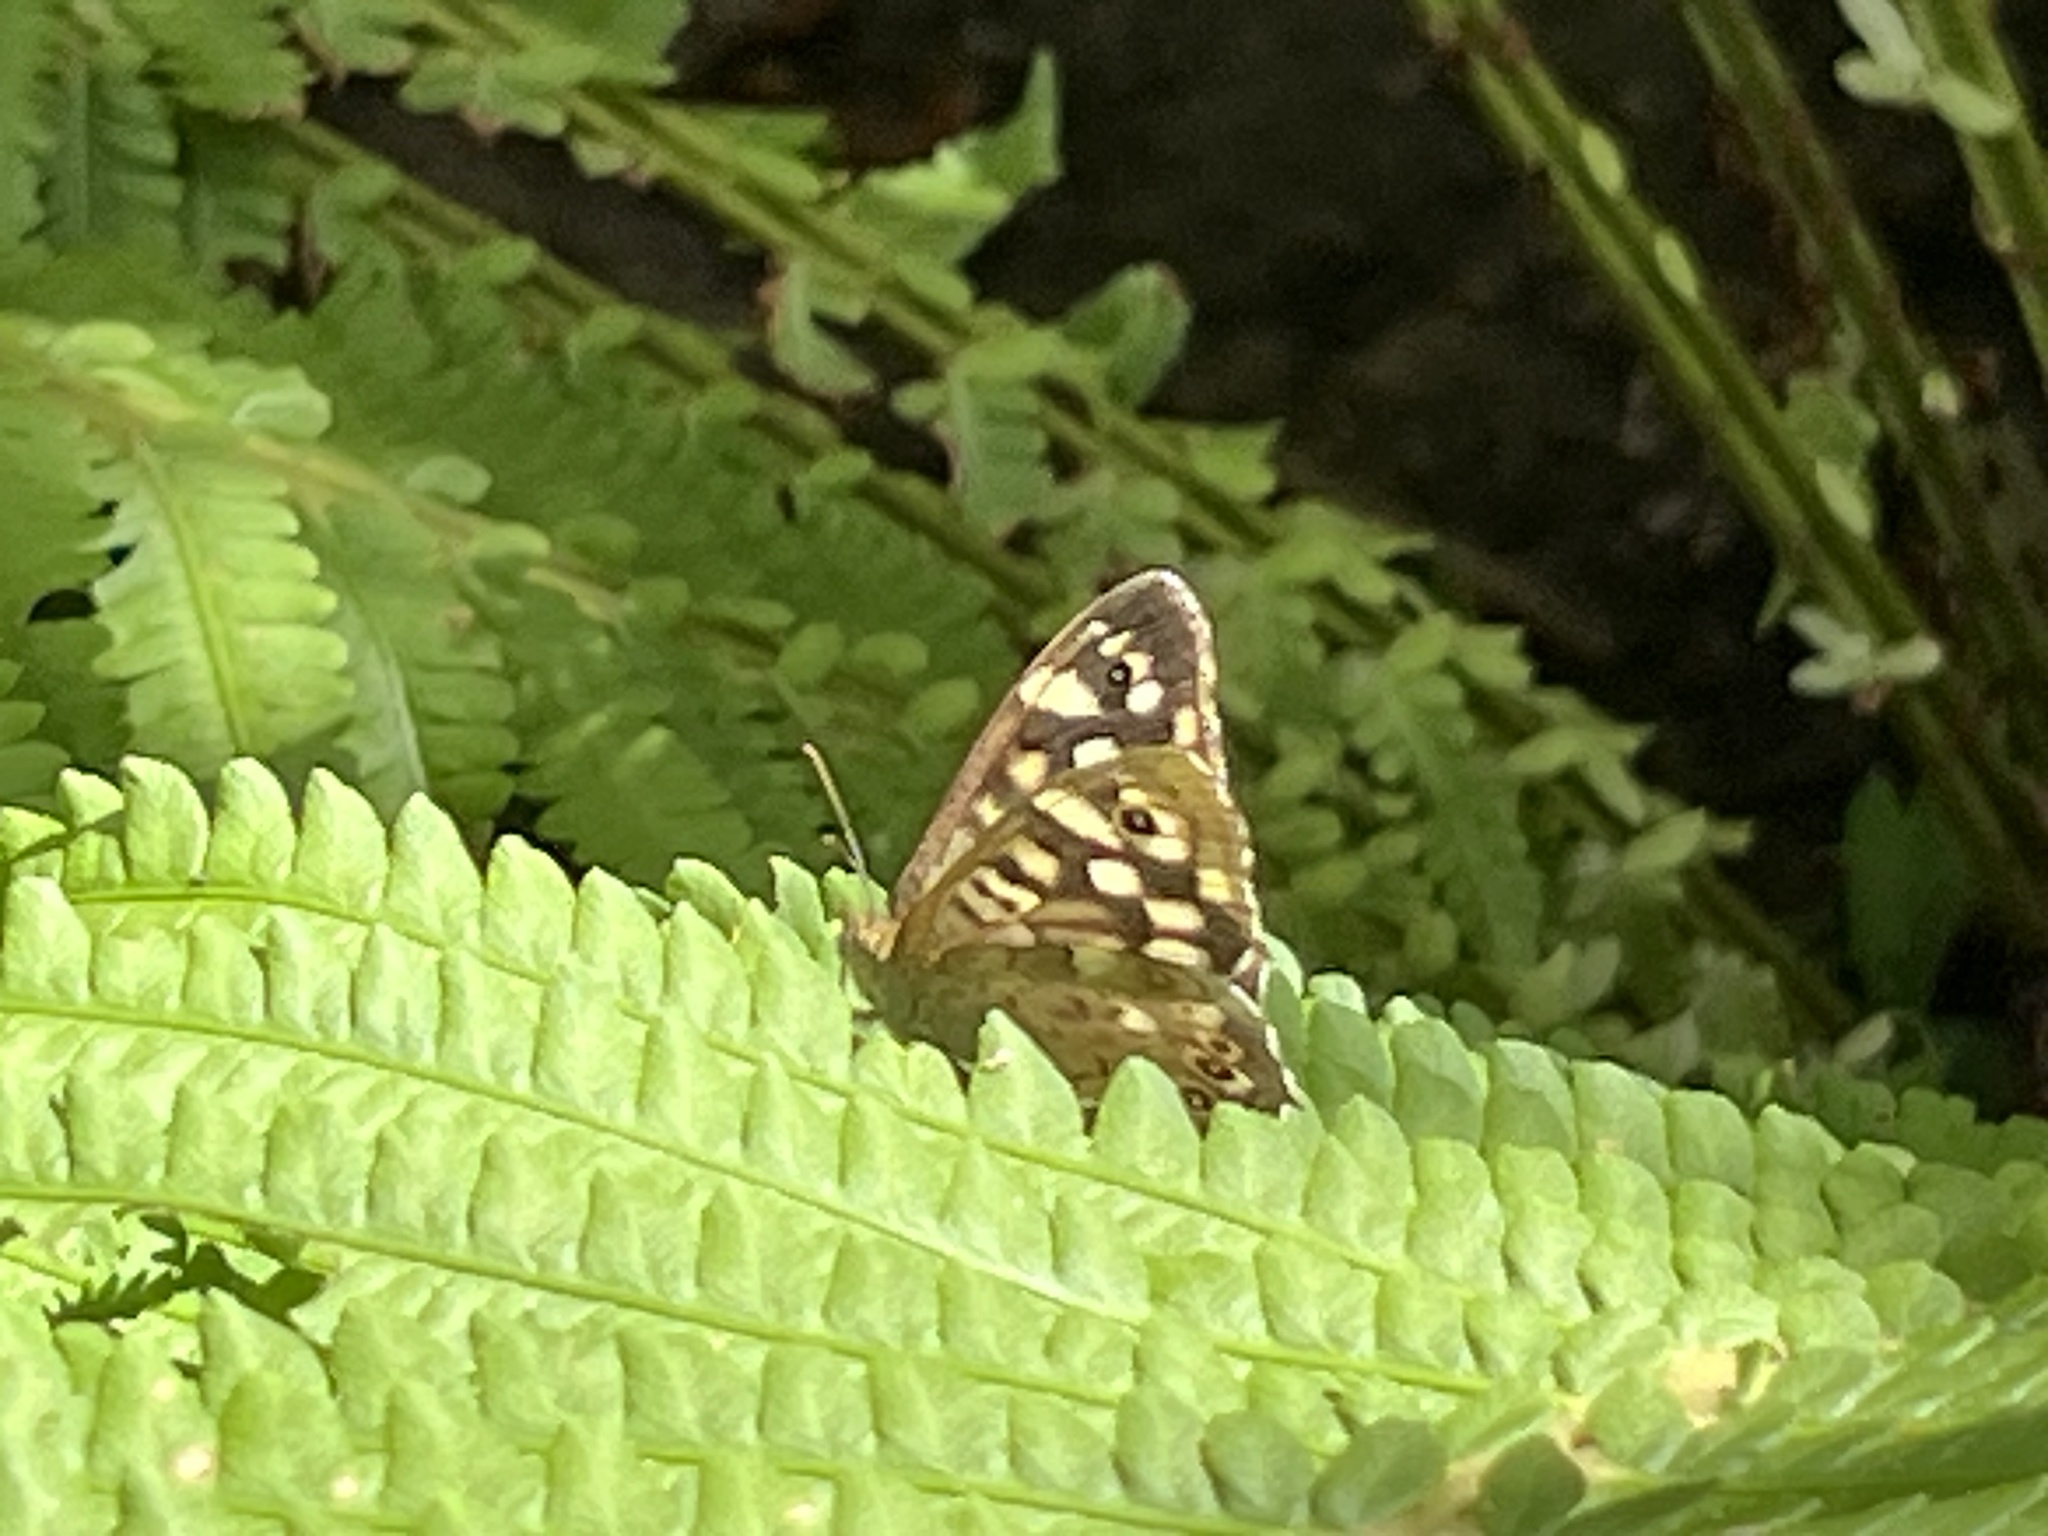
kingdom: Animalia
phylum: Arthropoda
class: Insecta
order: Lepidoptera
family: Nymphalidae
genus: Pararge
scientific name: Pararge aegeria
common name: Speckled wood
